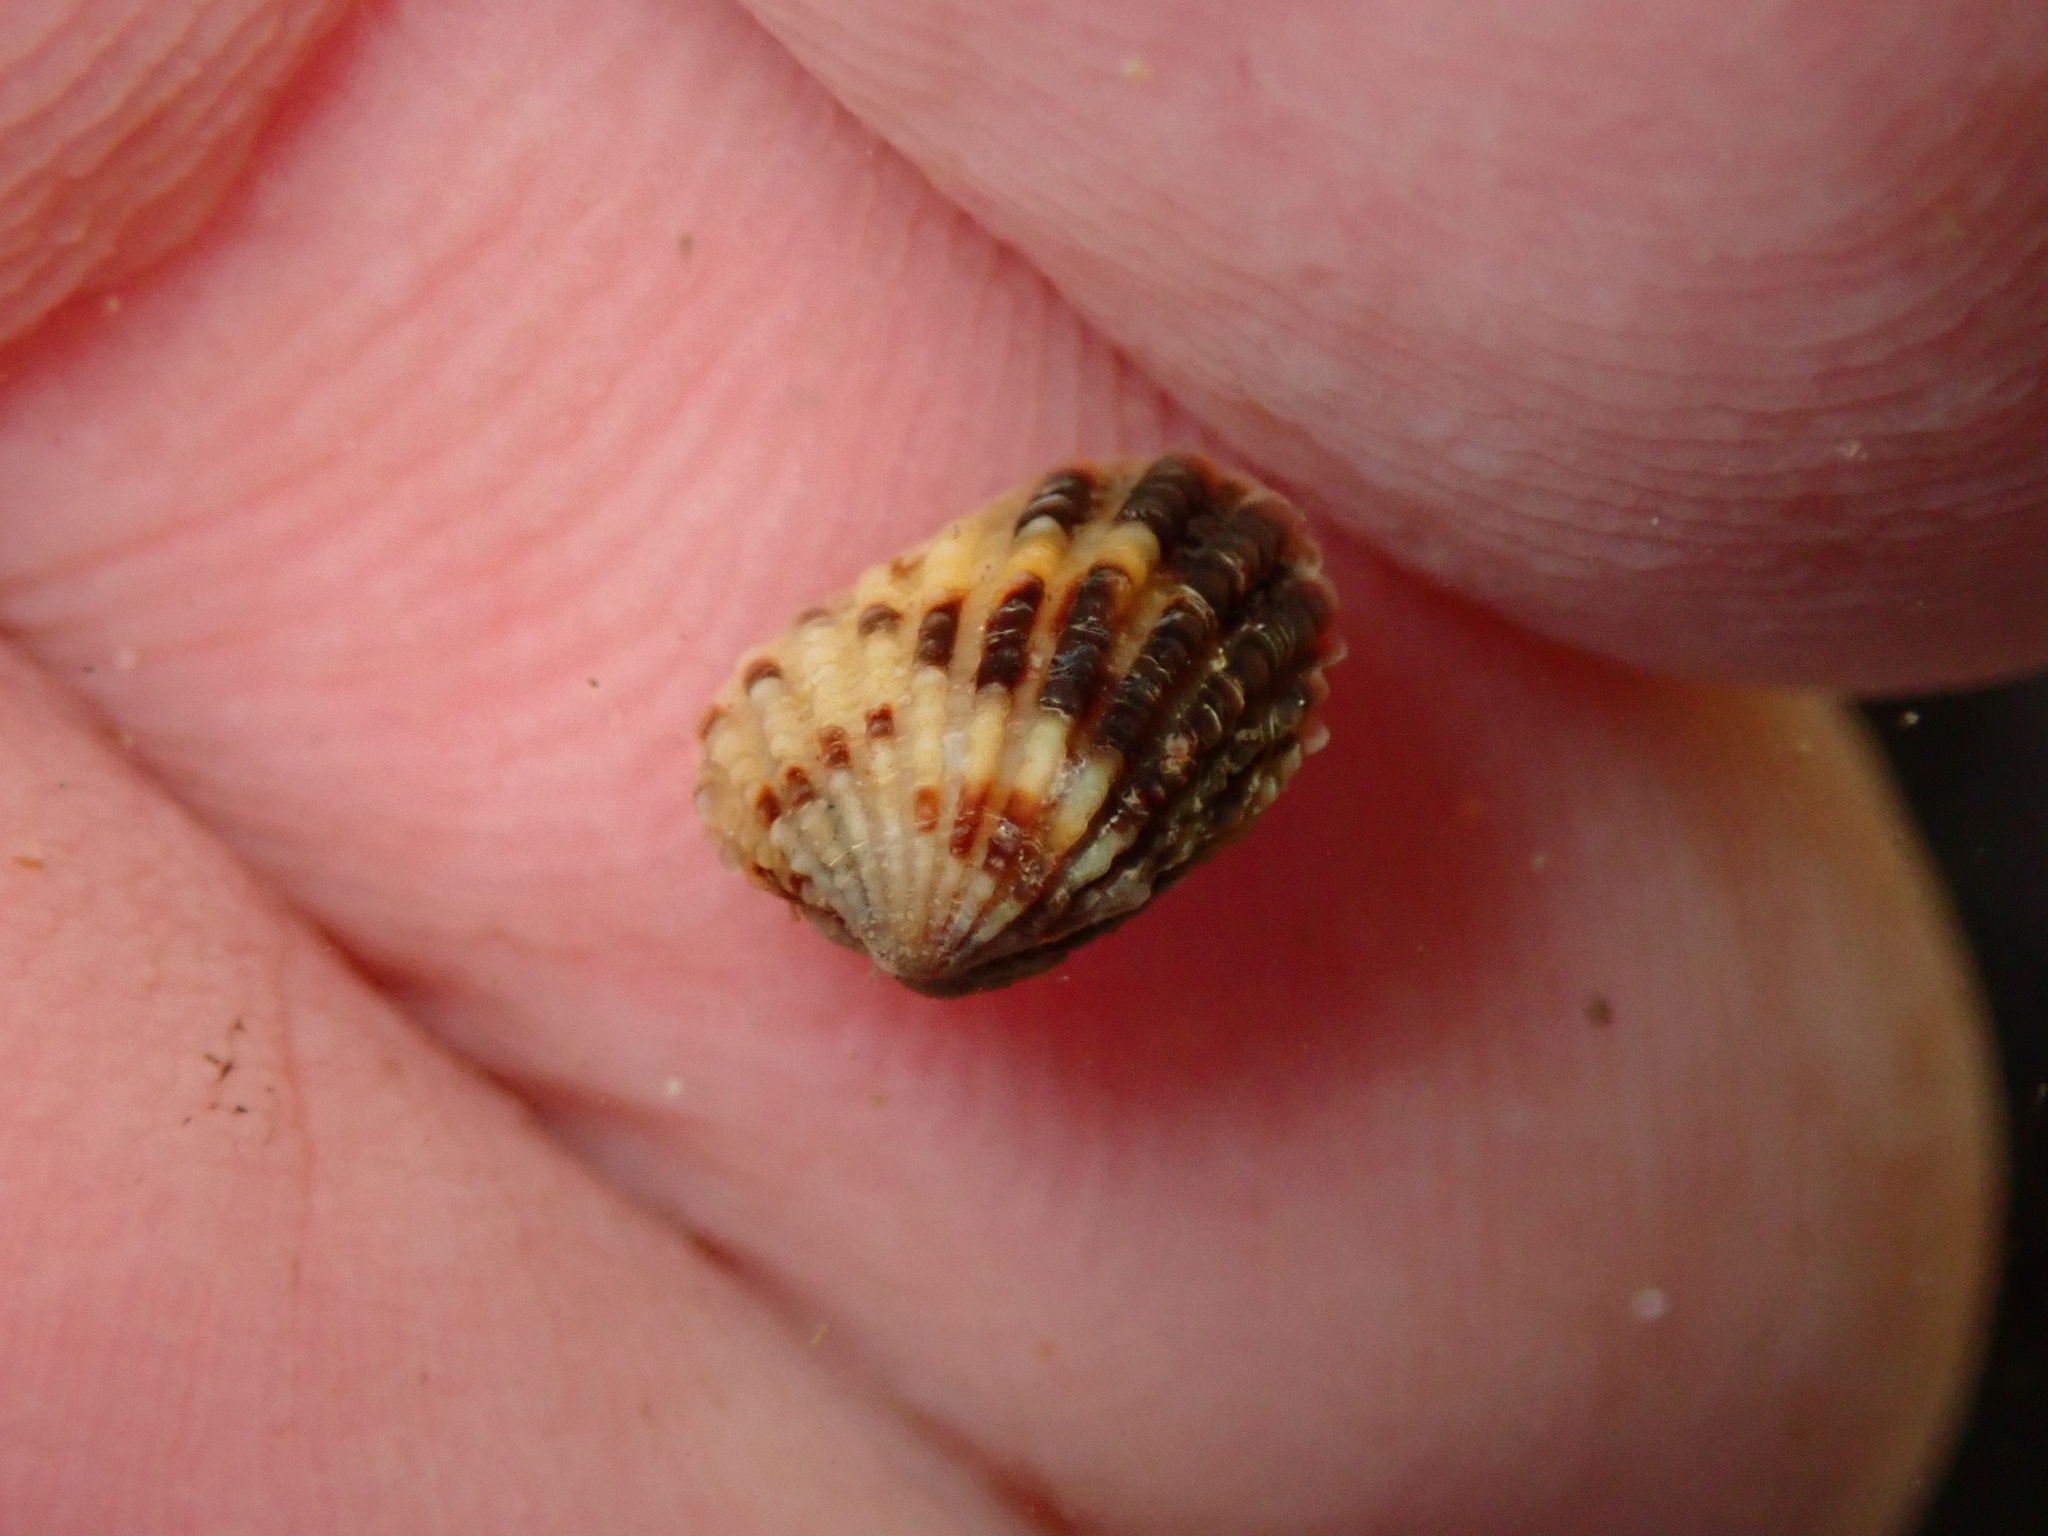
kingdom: Animalia
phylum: Mollusca
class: Bivalvia
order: Carditida
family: Carditidae
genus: Glans
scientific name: Glans carpenteri
